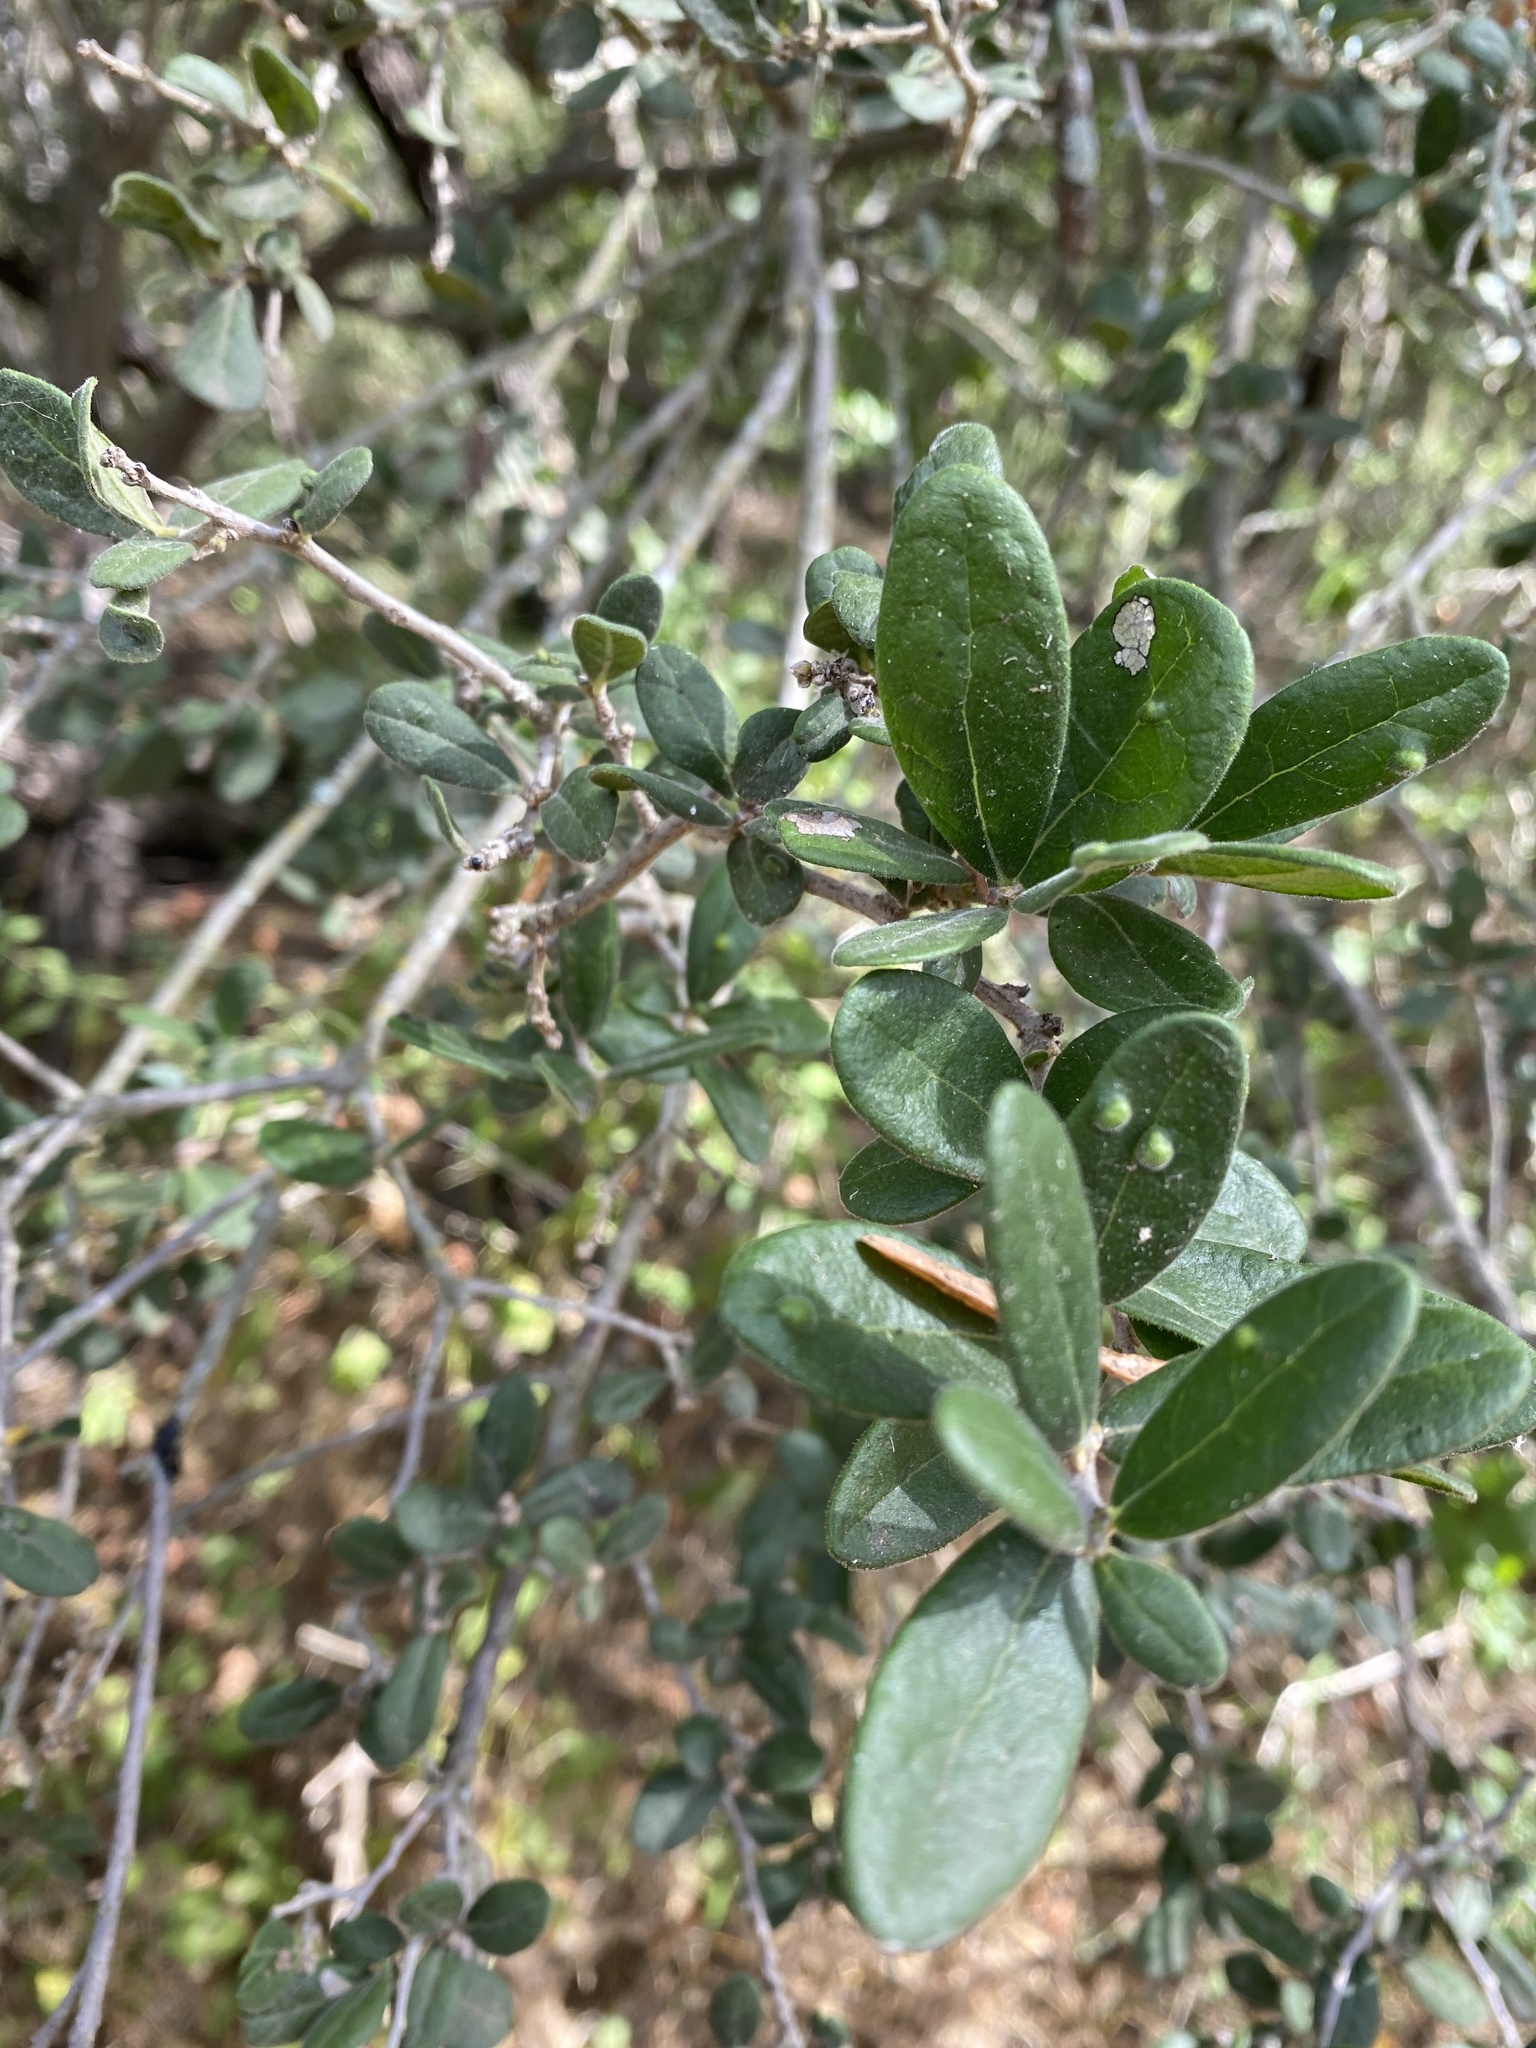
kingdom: Plantae
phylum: Tracheophyta
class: Magnoliopsida
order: Ericales
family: Ebenaceae
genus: Diospyros
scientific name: Diospyros texana
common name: Texas persimmon
